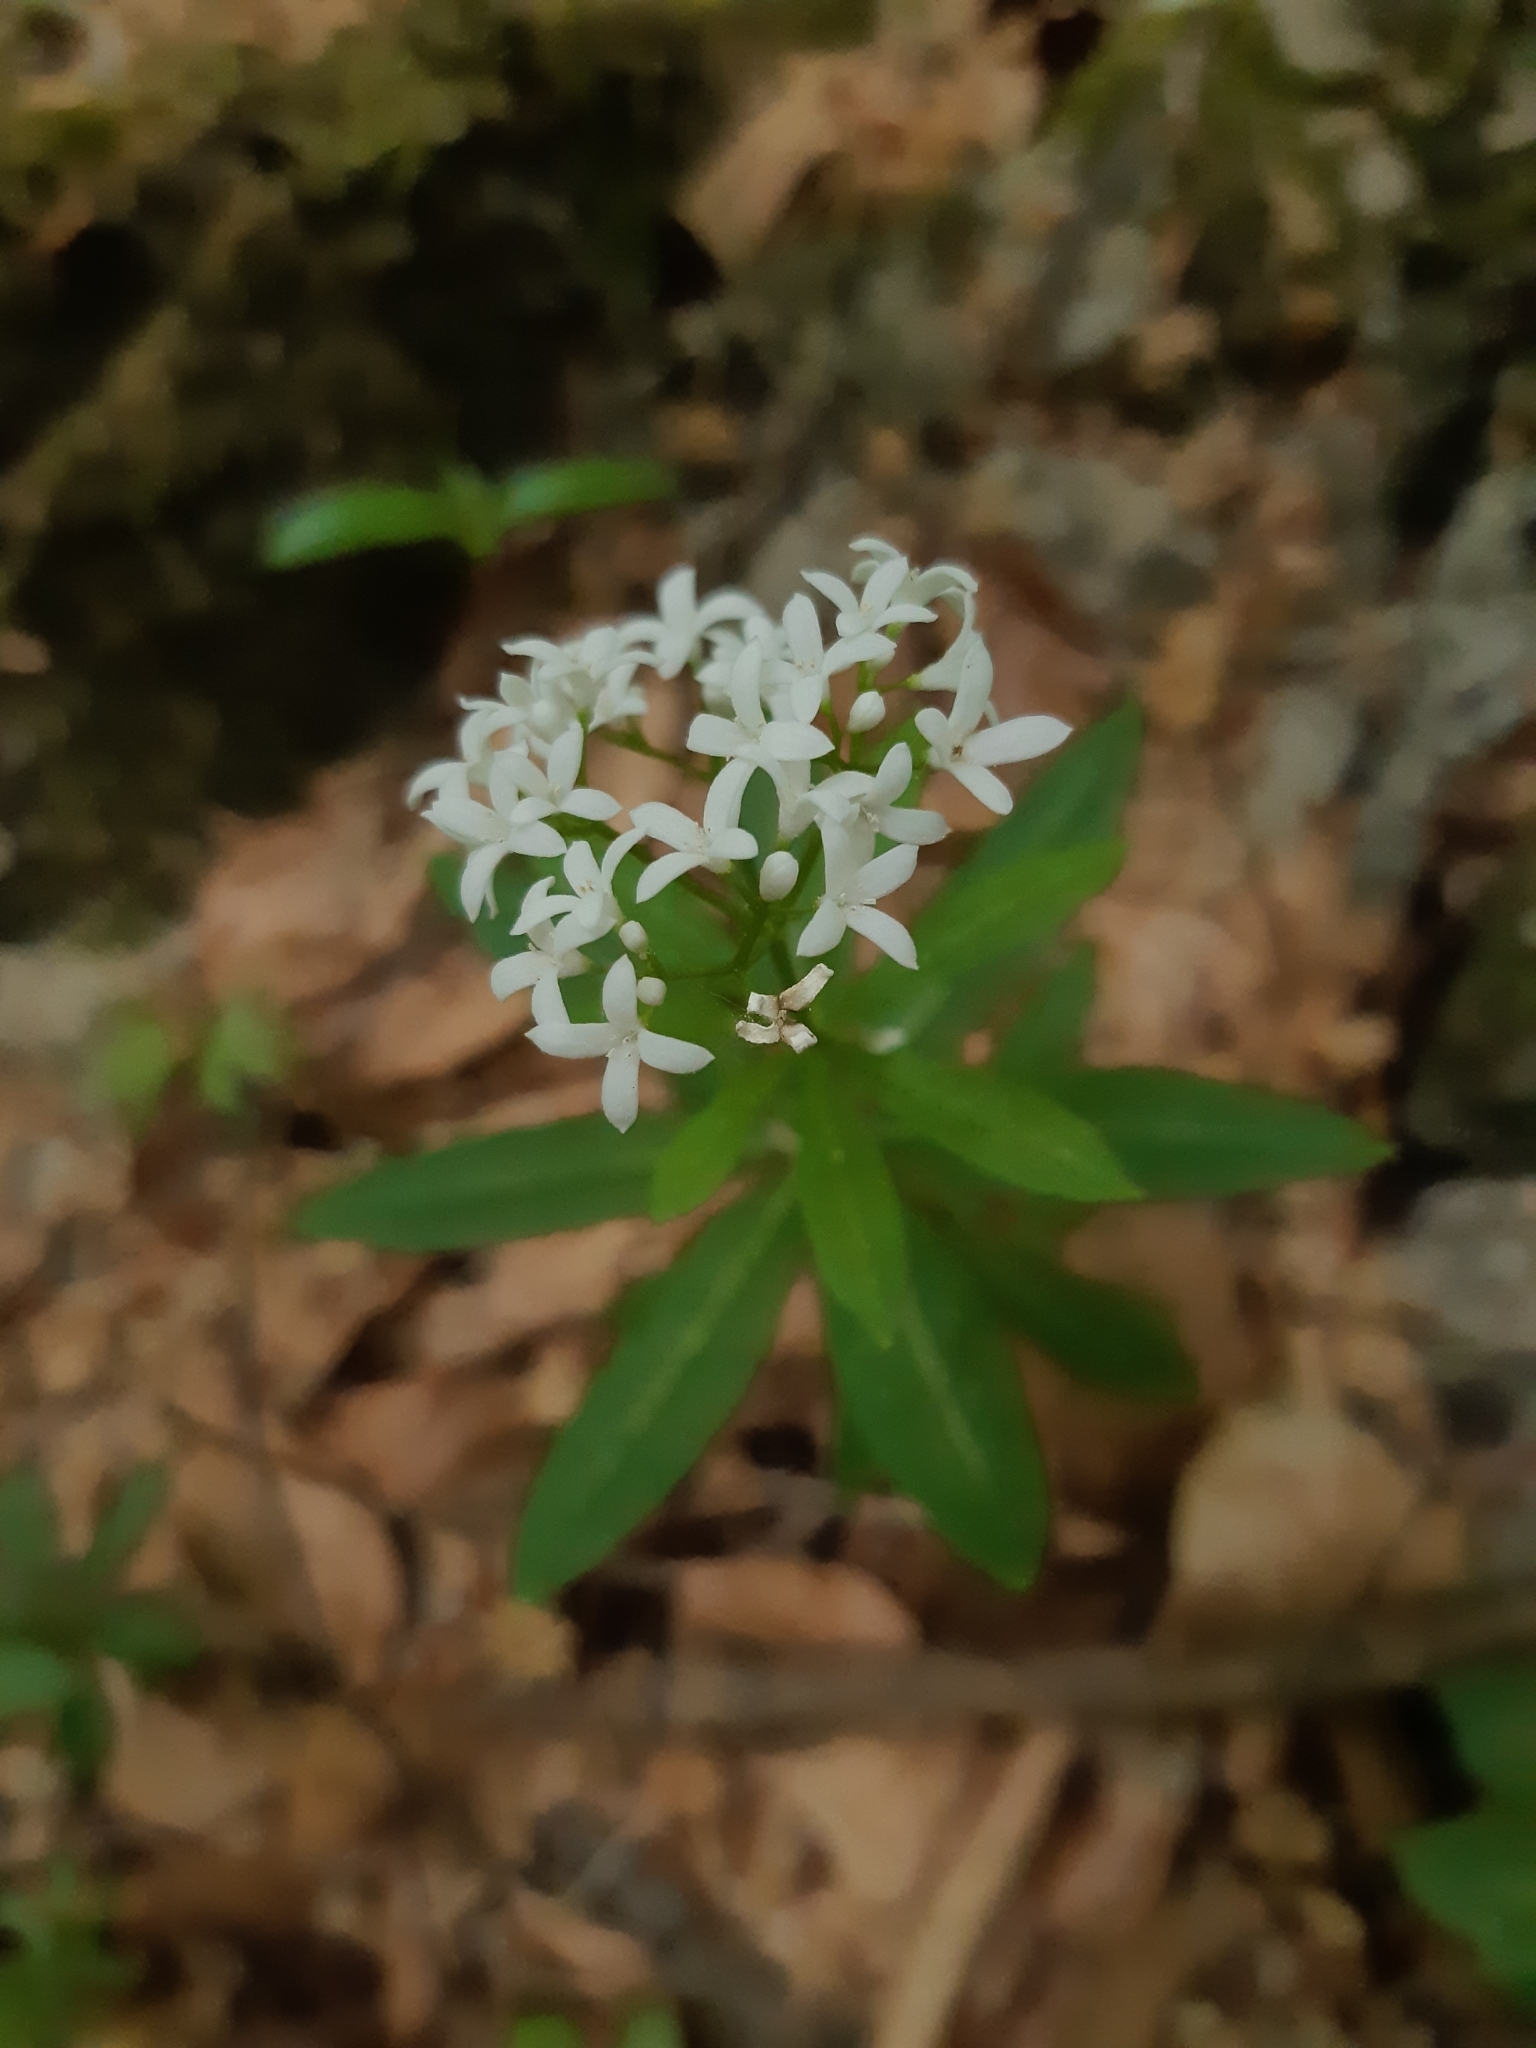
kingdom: Plantae
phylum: Tracheophyta
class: Magnoliopsida
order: Gentianales
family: Rubiaceae
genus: Galium
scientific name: Galium odoratum
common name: Sweet woodruff
